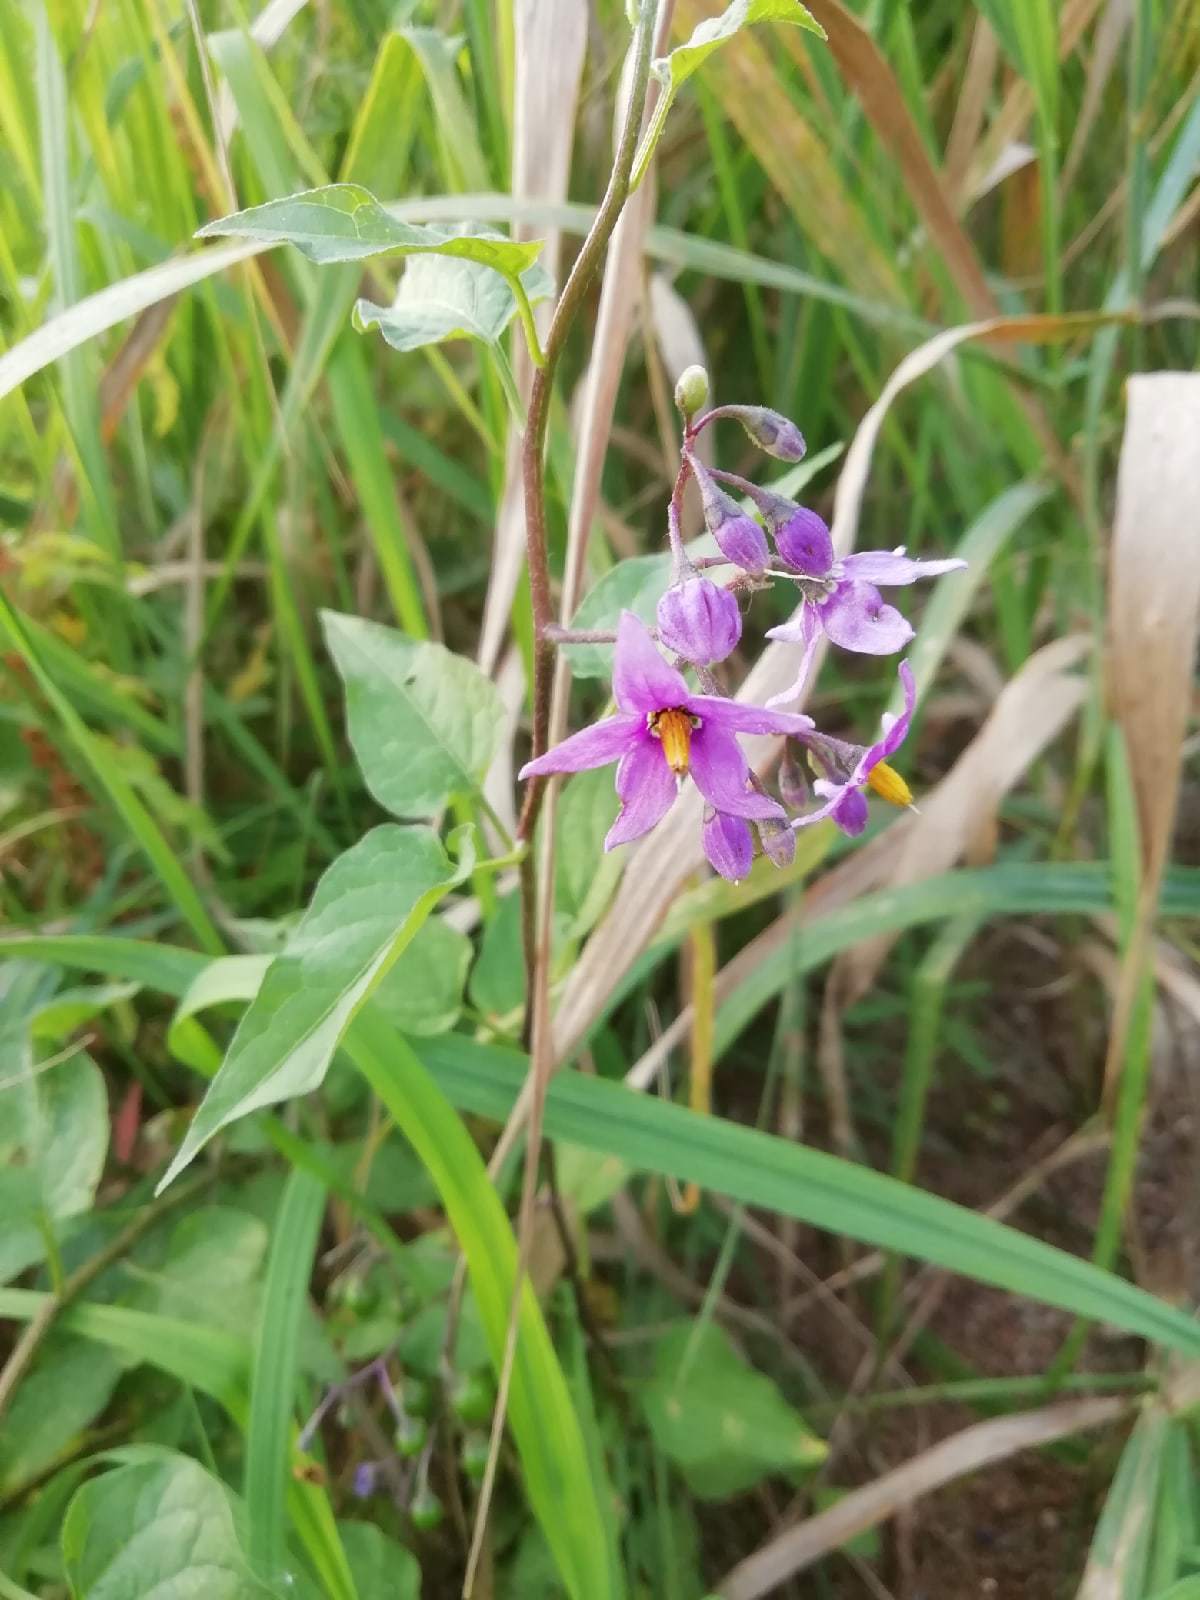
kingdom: Plantae
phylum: Tracheophyta
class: Magnoliopsida
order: Solanales
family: Solanaceae
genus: Solanum
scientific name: Solanum dulcamara
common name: Climbing nightshade
